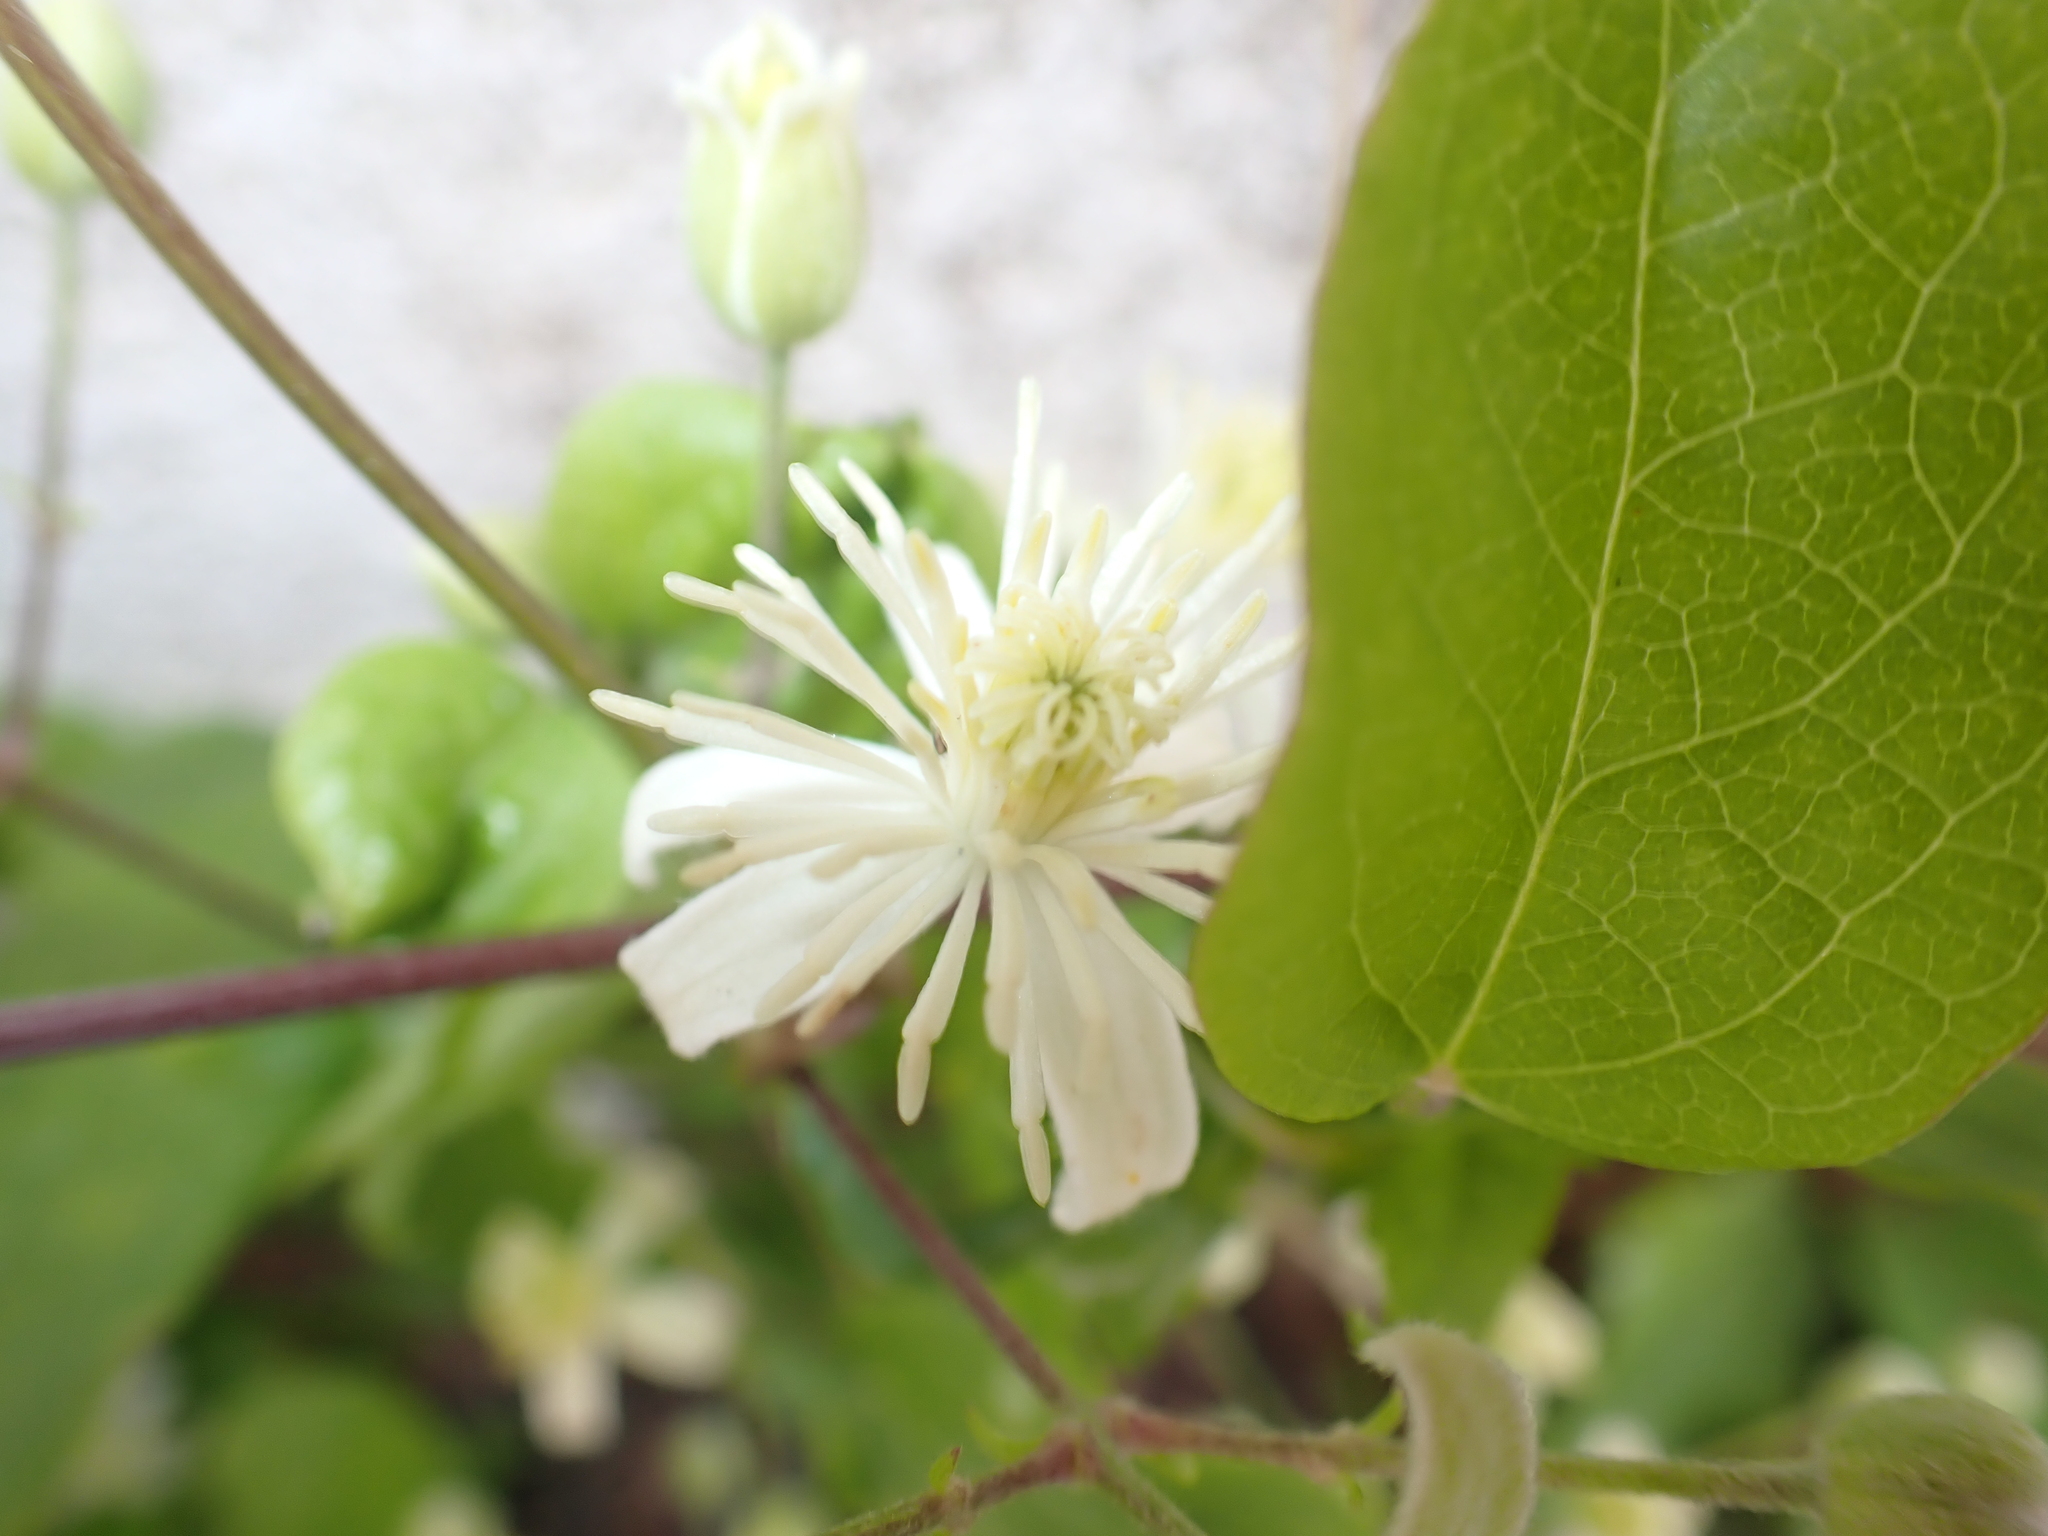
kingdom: Plantae
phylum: Tracheophyta
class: Magnoliopsida
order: Ranunculales
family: Ranunculaceae
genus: Clematis
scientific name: Clematis vitalba
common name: Evergreen clematis
